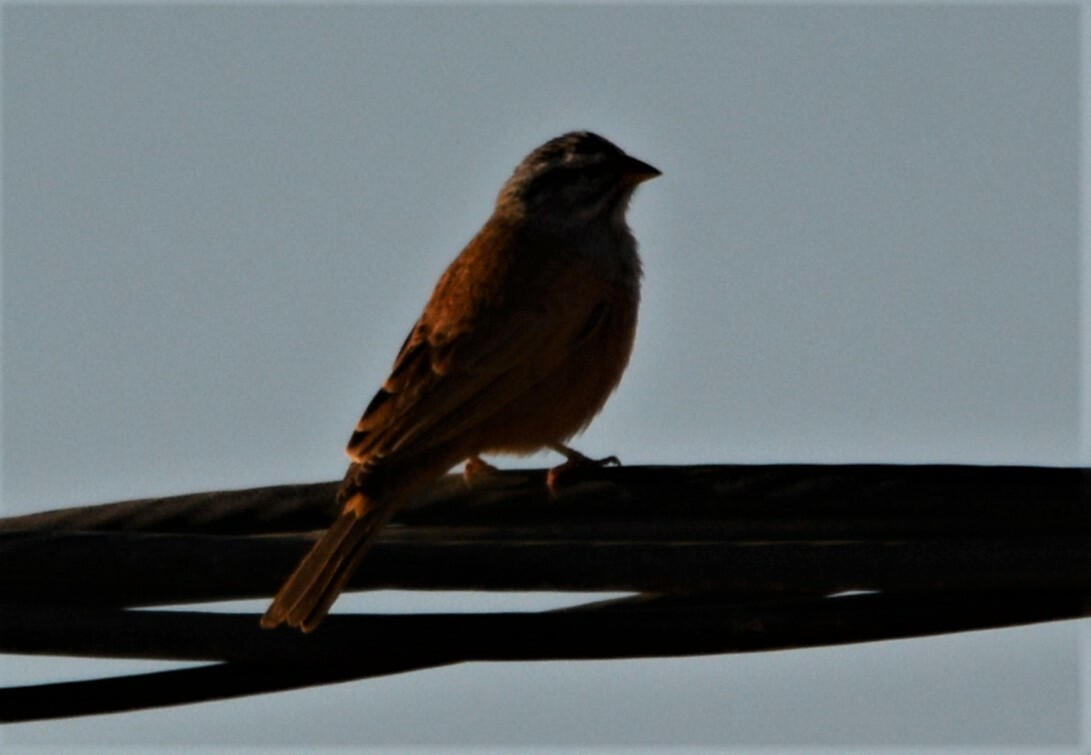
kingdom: Animalia
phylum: Chordata
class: Aves
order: Passeriformes
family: Emberizidae
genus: Emberiza
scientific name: Emberiza sahari
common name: House bunting
